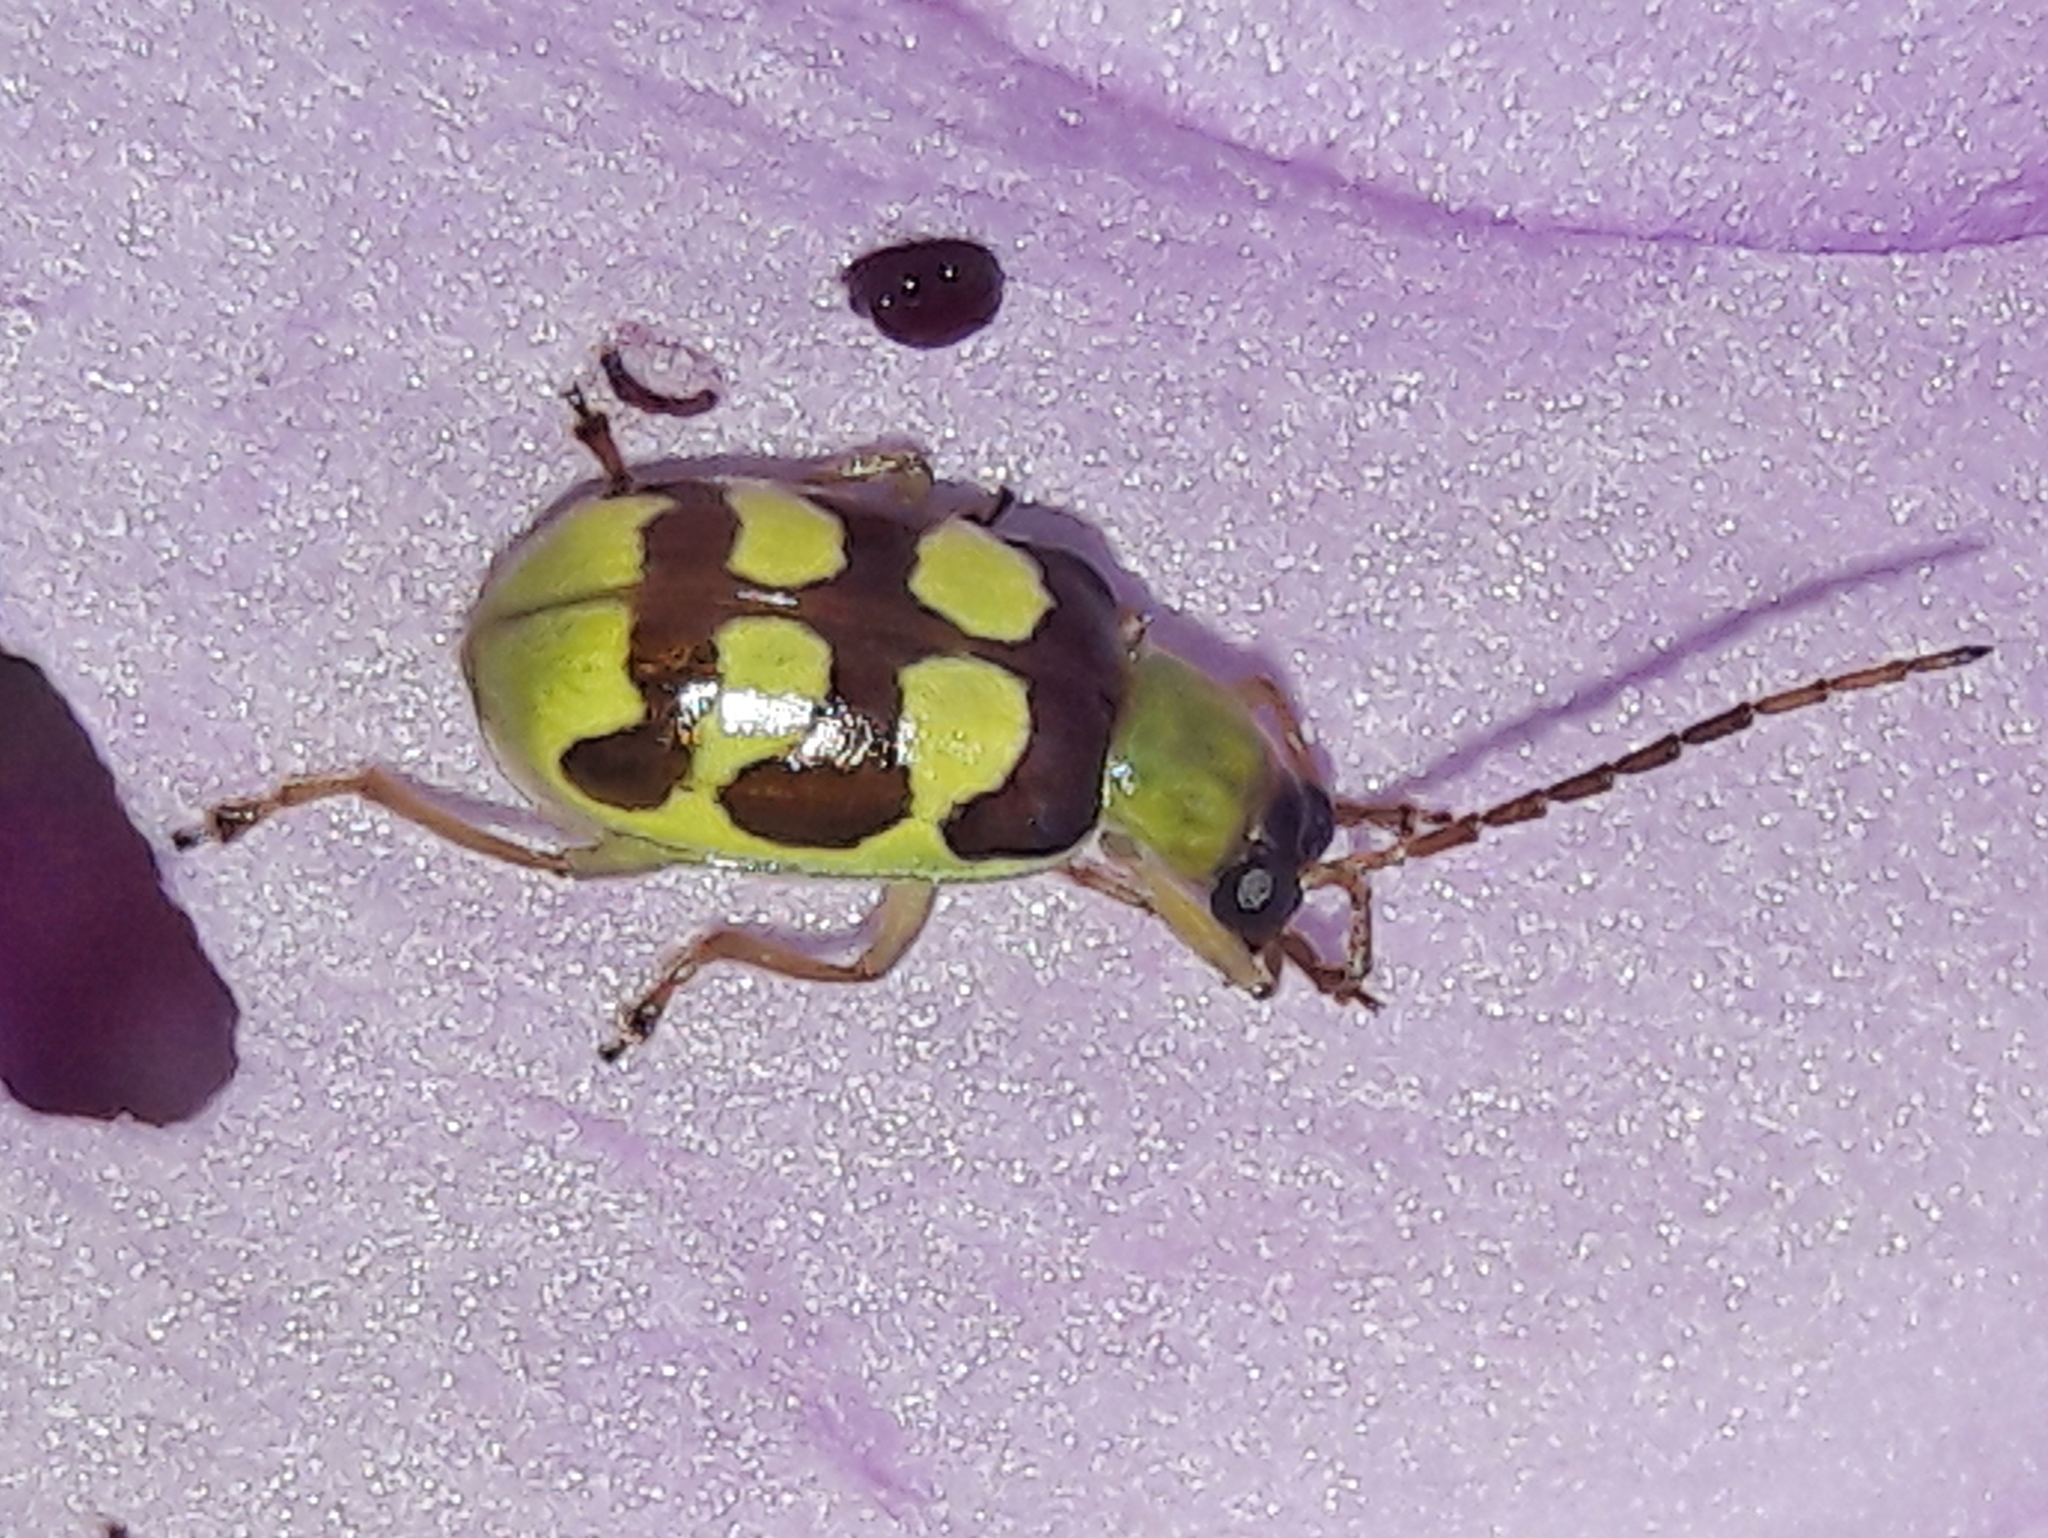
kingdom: Animalia
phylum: Arthropoda
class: Insecta
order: Coleoptera
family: Chrysomelidae
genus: Basiprionota
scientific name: Basiprionota sinuata
